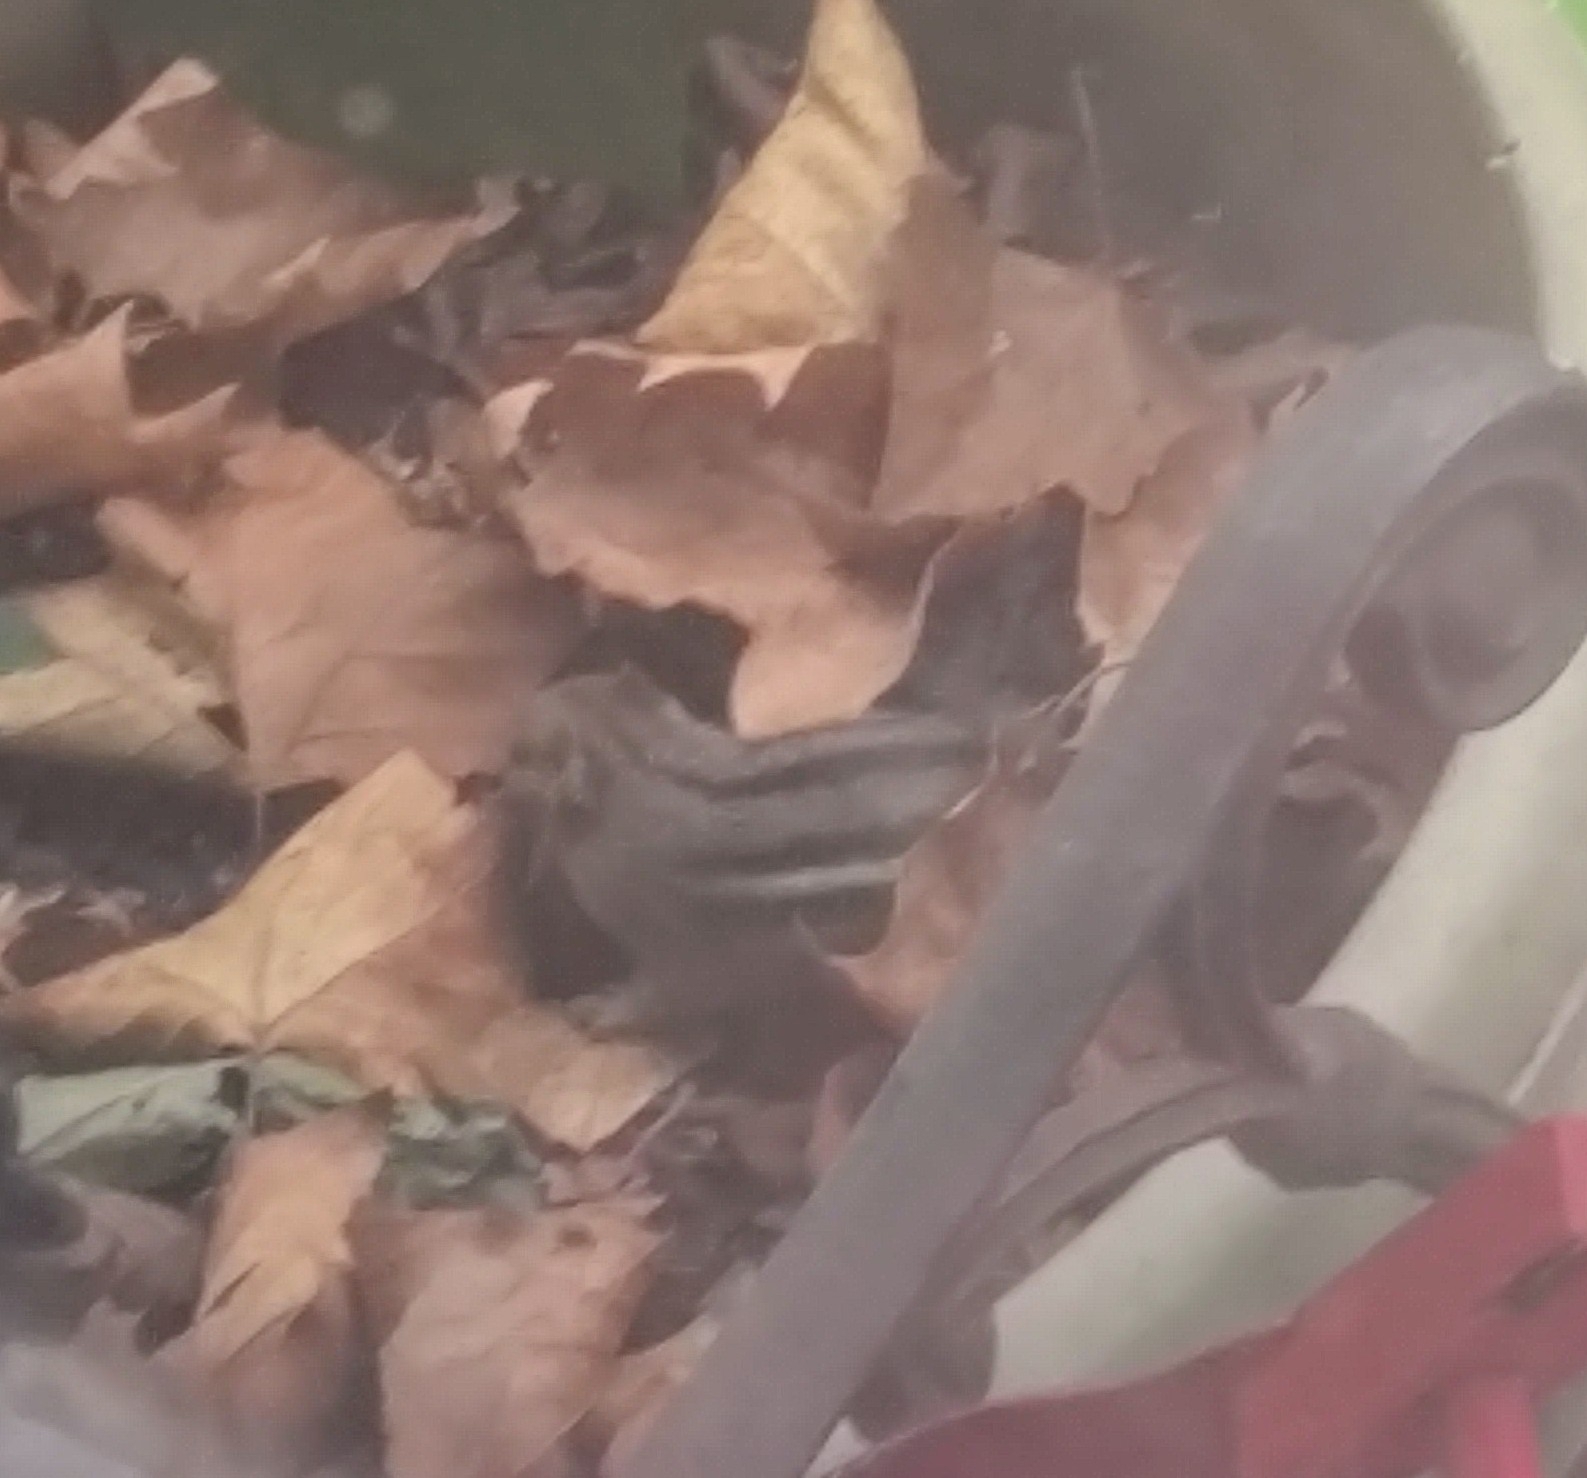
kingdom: Animalia
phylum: Chordata
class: Mammalia
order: Rodentia
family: Sciuridae
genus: Tamias
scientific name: Tamias striatus
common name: Eastern chipmunk
